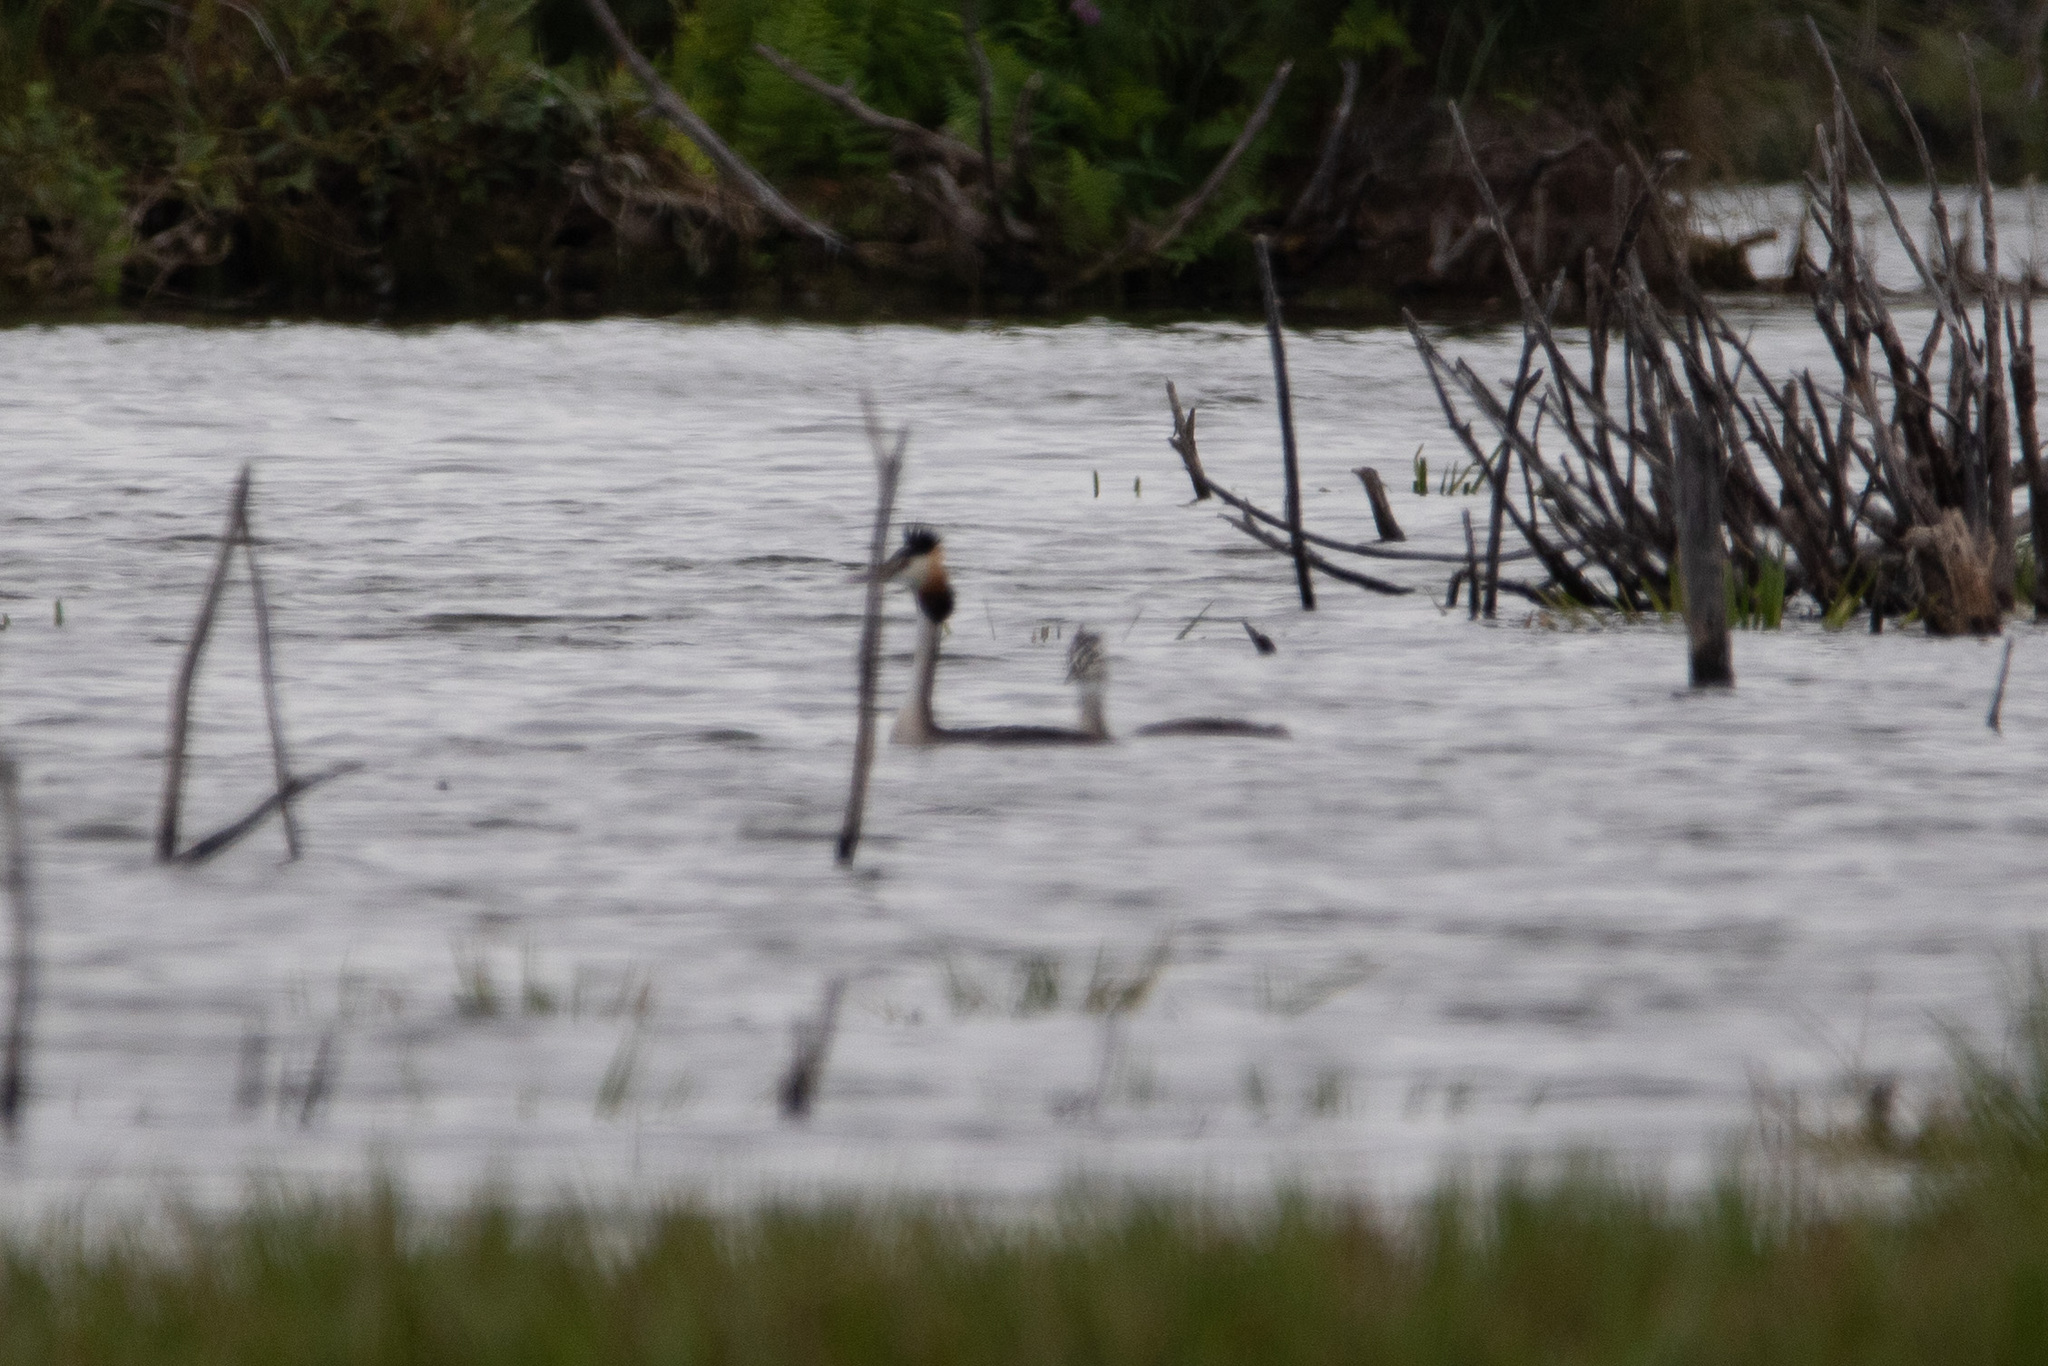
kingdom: Animalia
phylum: Chordata
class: Aves
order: Podicipediformes
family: Podicipedidae
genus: Podiceps
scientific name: Podiceps cristatus
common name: Great crested grebe
